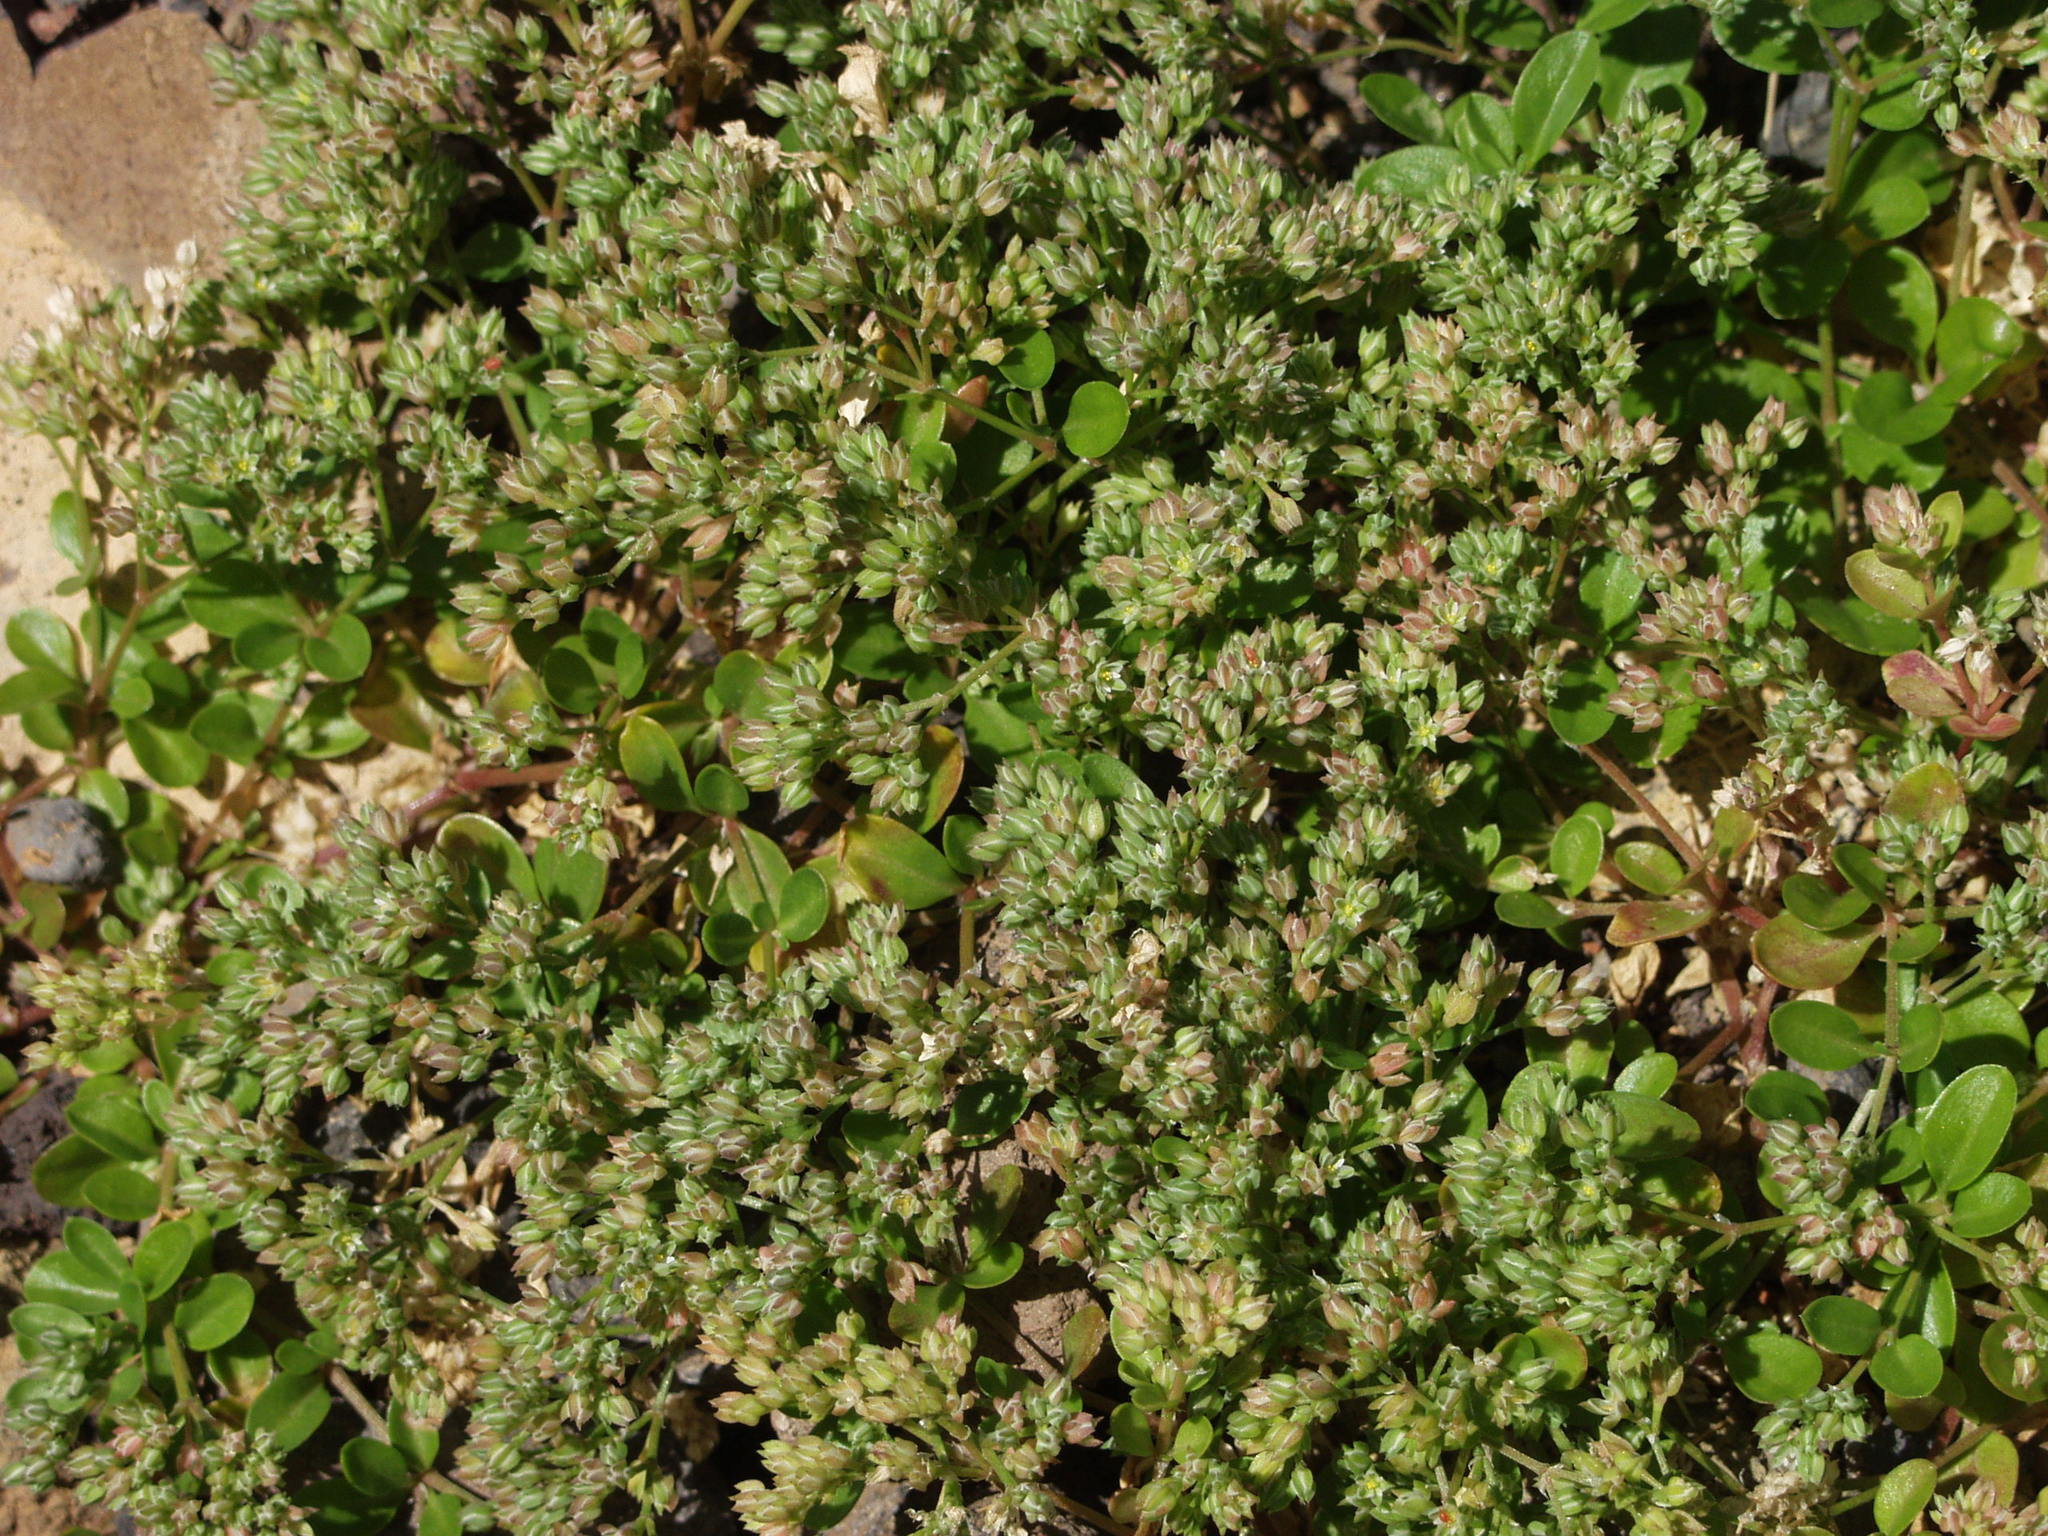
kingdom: Plantae
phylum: Tracheophyta
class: Magnoliopsida
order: Caryophyllales
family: Caryophyllaceae
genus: Polycarpon
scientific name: Polycarpon tetraphyllum
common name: Four-leaved all-seed
